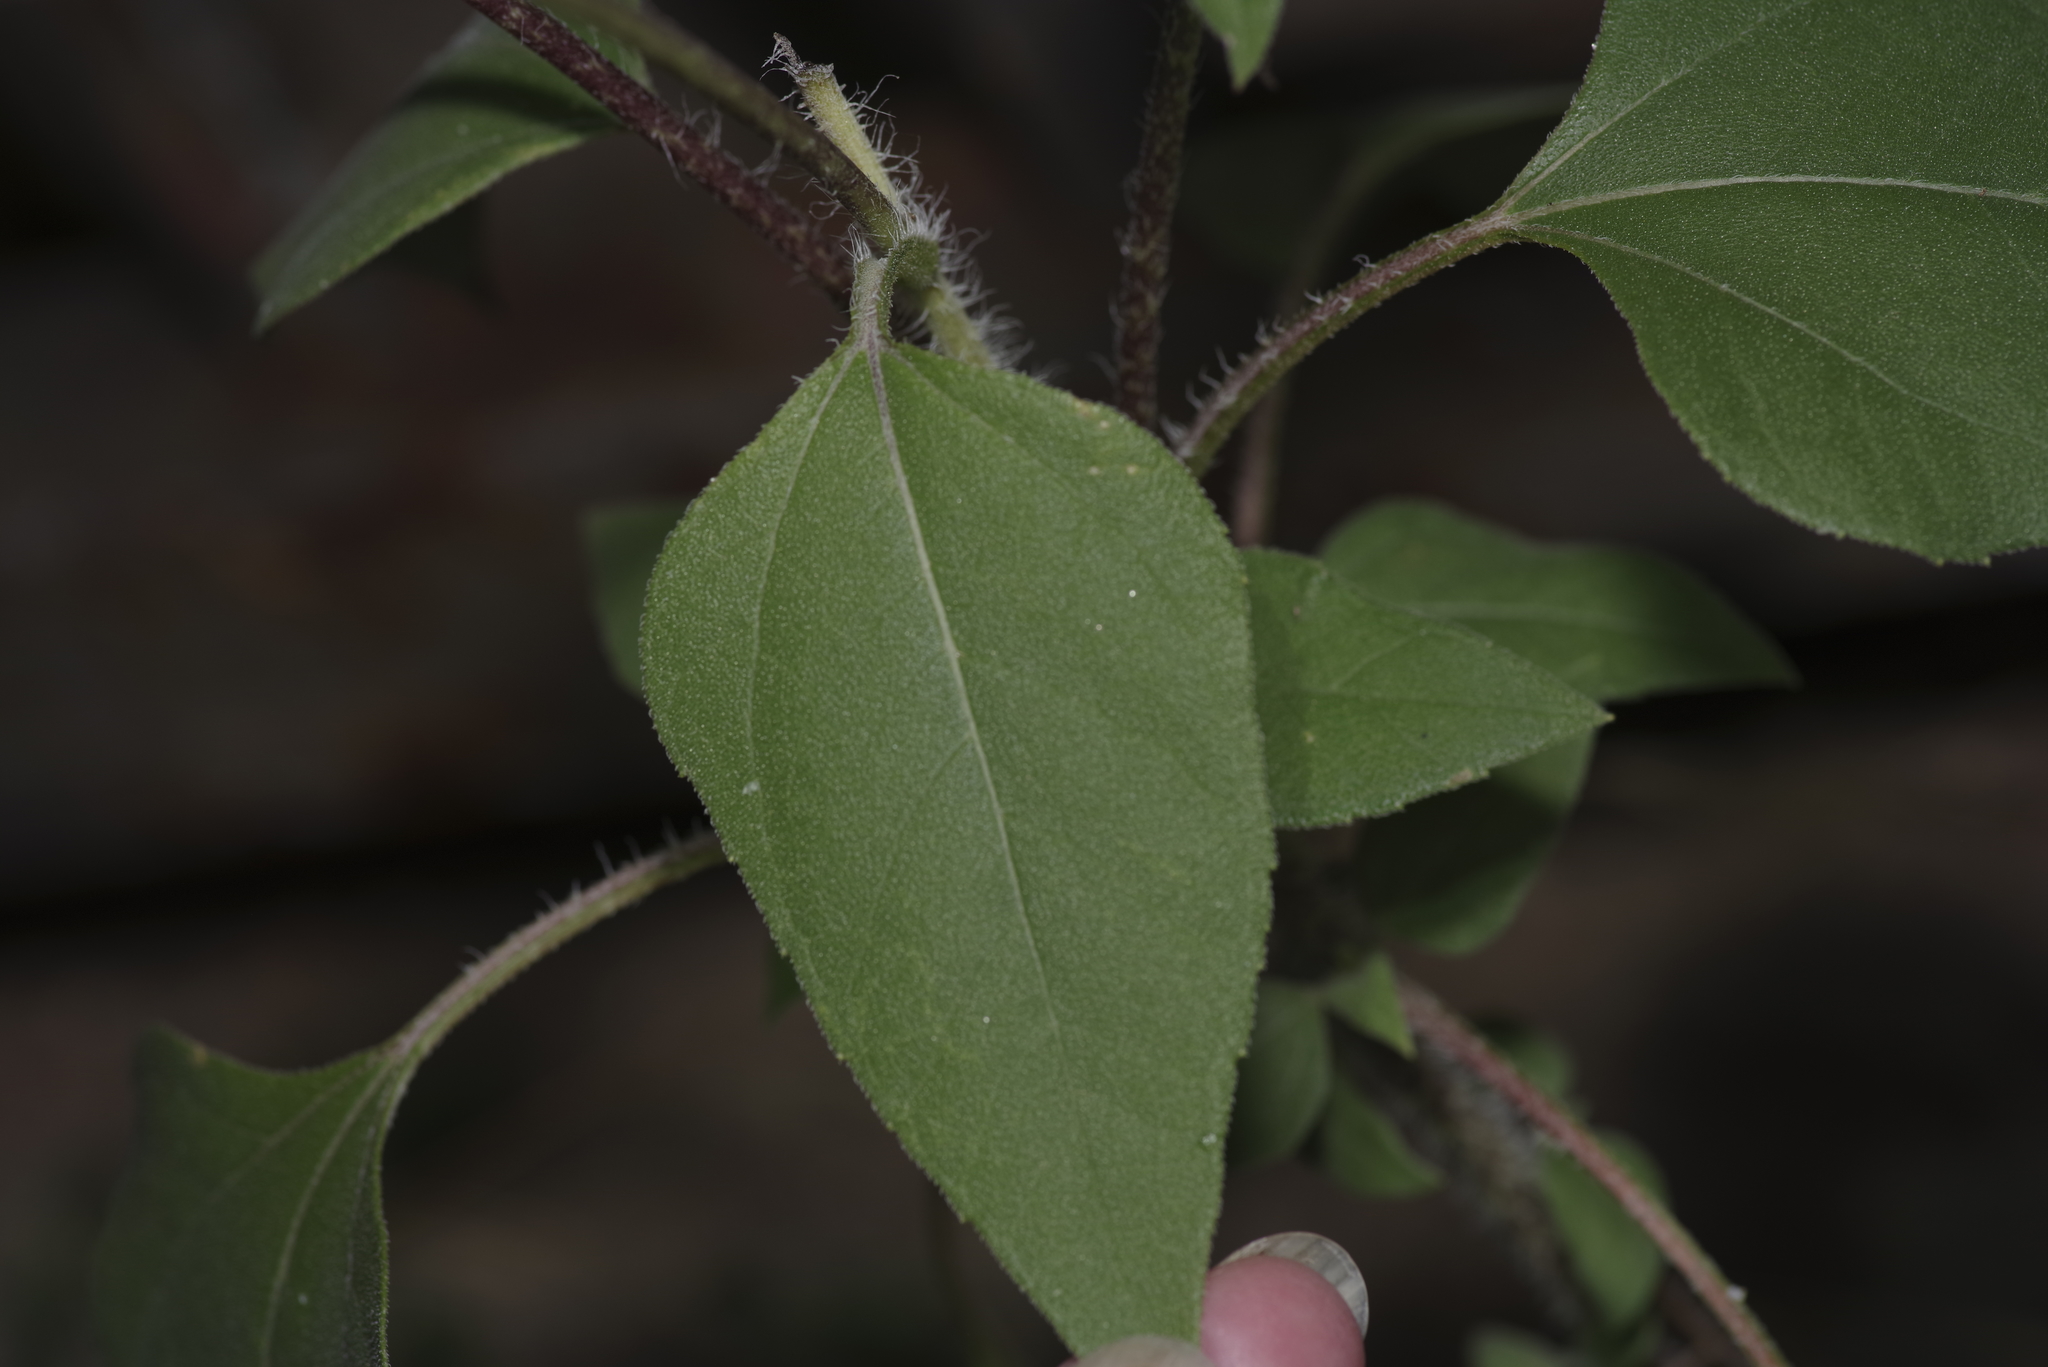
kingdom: Plantae
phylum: Tracheophyta
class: Magnoliopsida
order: Asterales
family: Asteraceae
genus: Helianthus
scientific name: Helianthus annuus
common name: Sunflower
